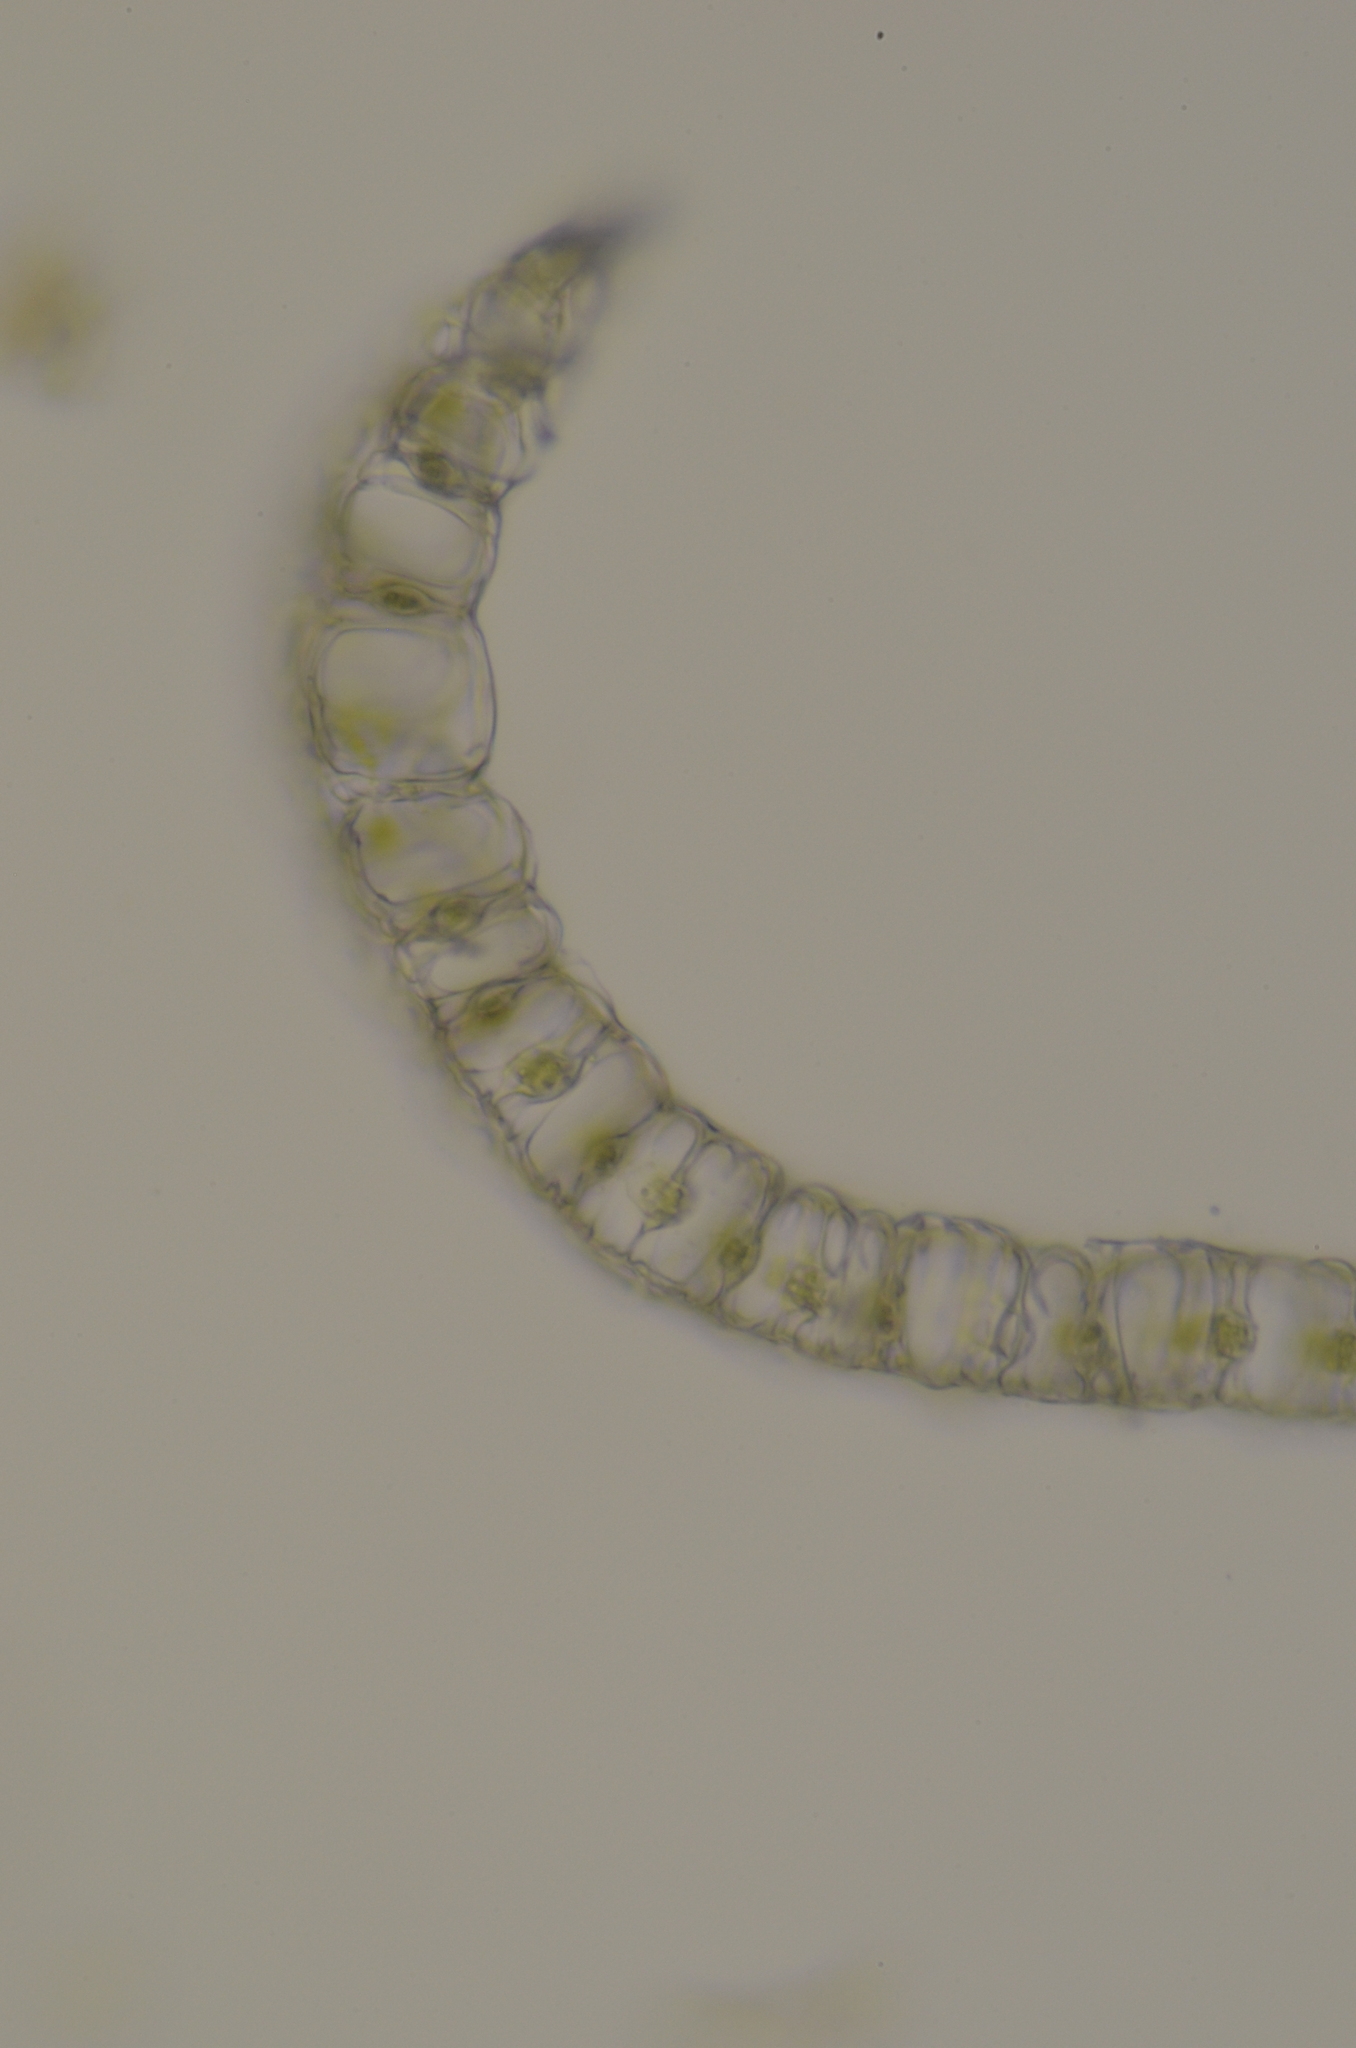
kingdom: Plantae
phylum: Bryophyta
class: Sphagnopsida
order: Sphagnales
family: Sphagnaceae
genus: Sphagnum
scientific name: Sphagnum compactum
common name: Compact peat moss
